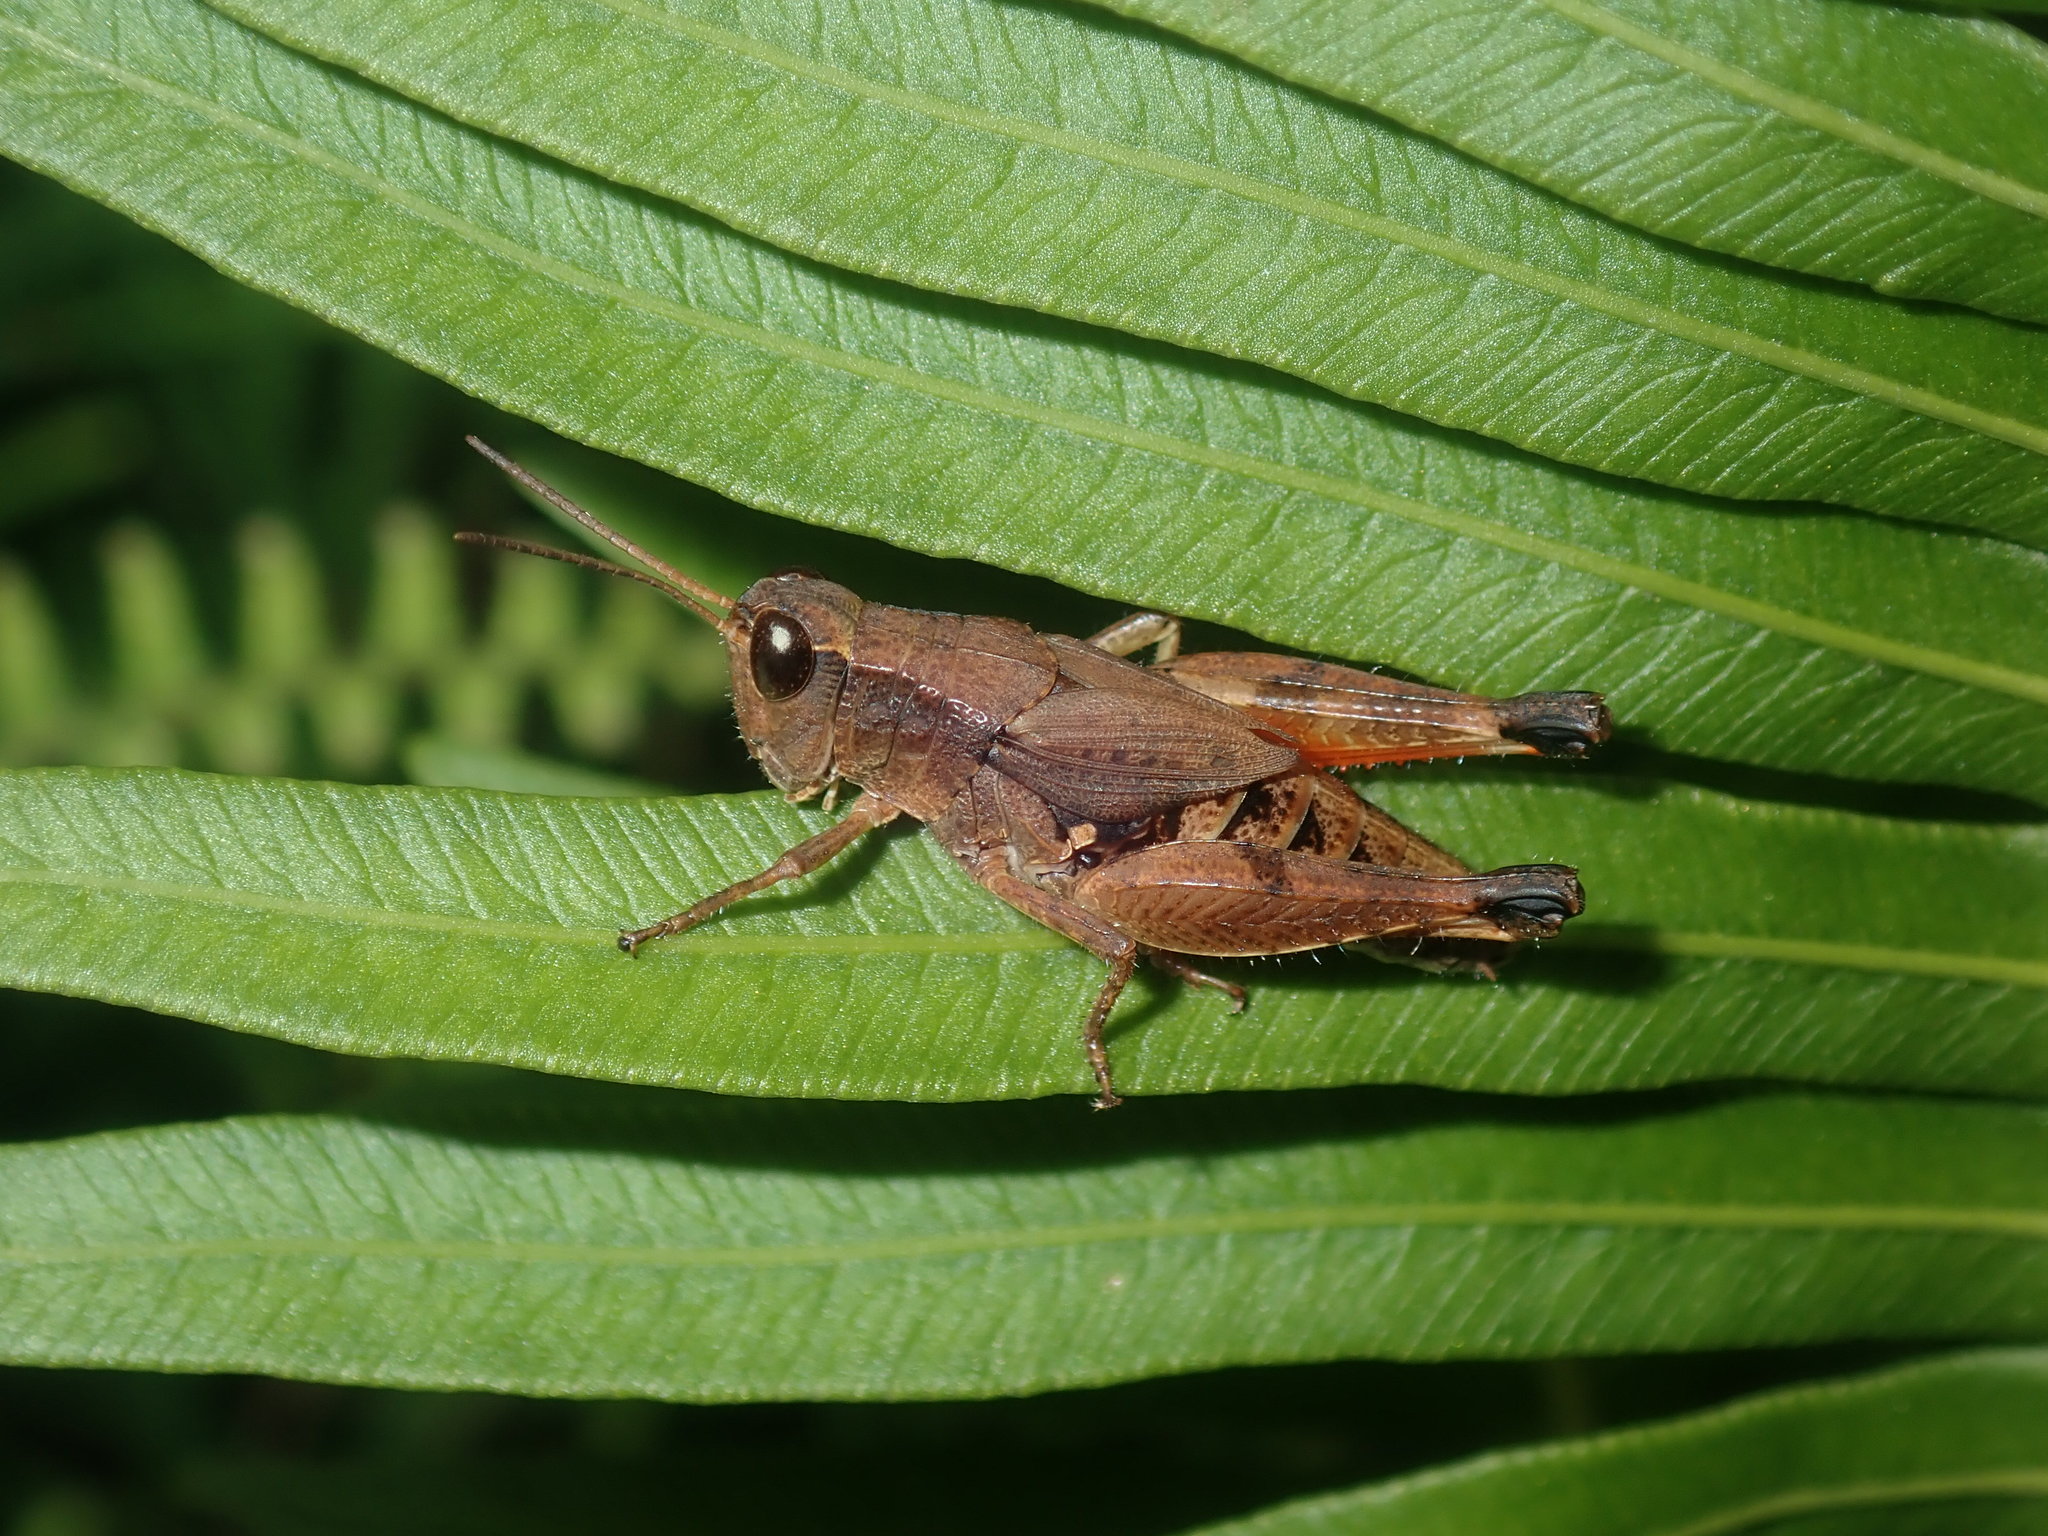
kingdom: Animalia
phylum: Arthropoda
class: Insecta
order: Orthoptera
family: Acrididae
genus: Phaulacridium
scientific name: Phaulacridium vittatum
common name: Wingless grasshopper
